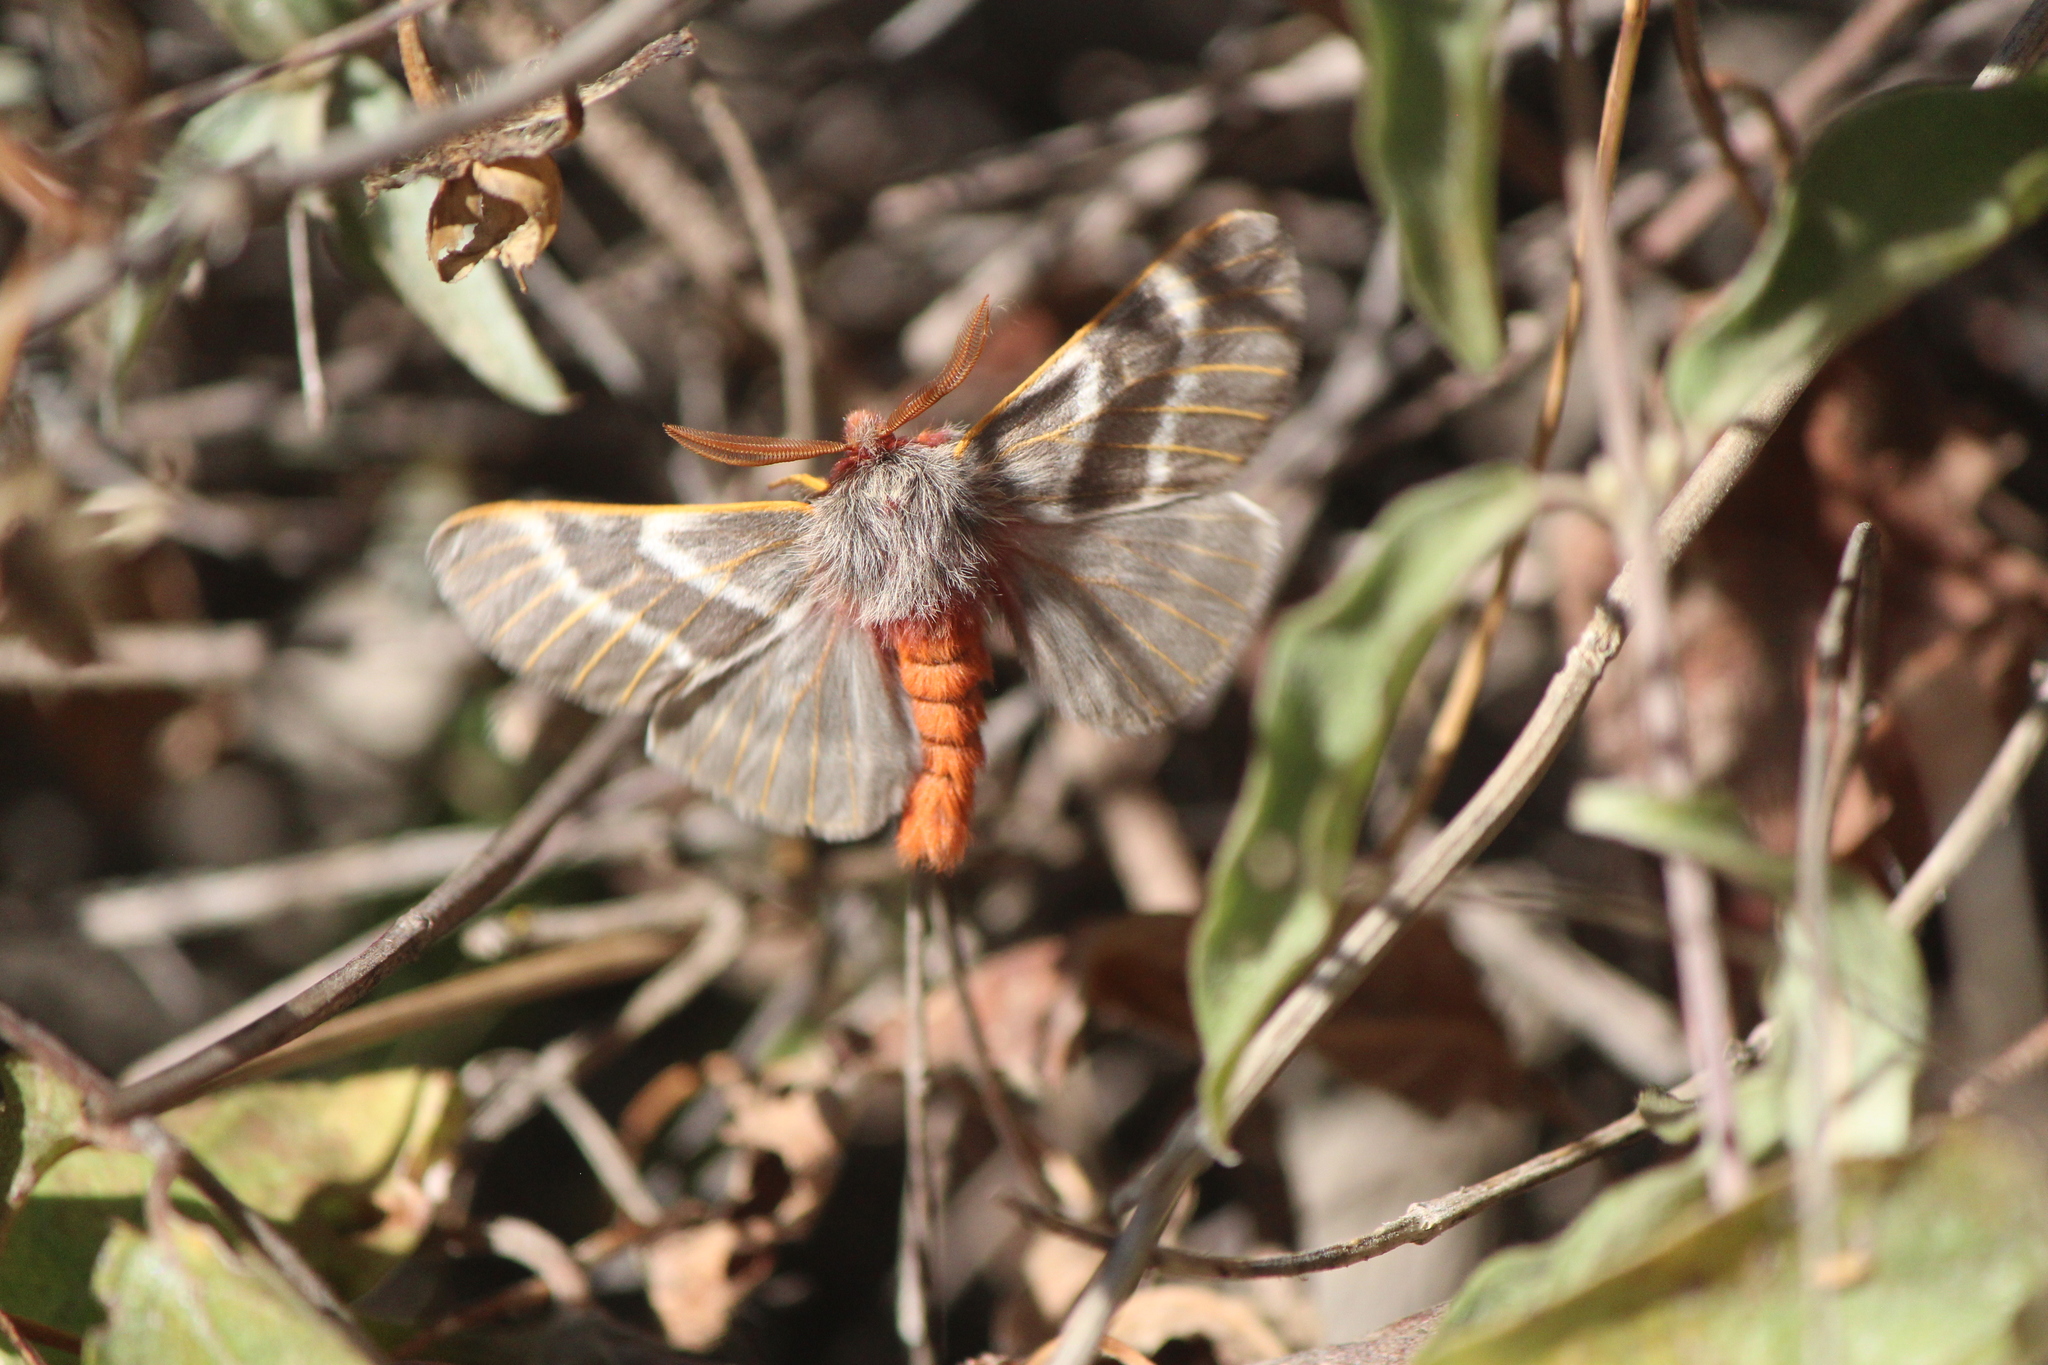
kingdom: Animalia
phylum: Arthropoda
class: Insecta
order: Lepidoptera
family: Saturniidae
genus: Hemileuca
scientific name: Hemileuca rubridorsa
